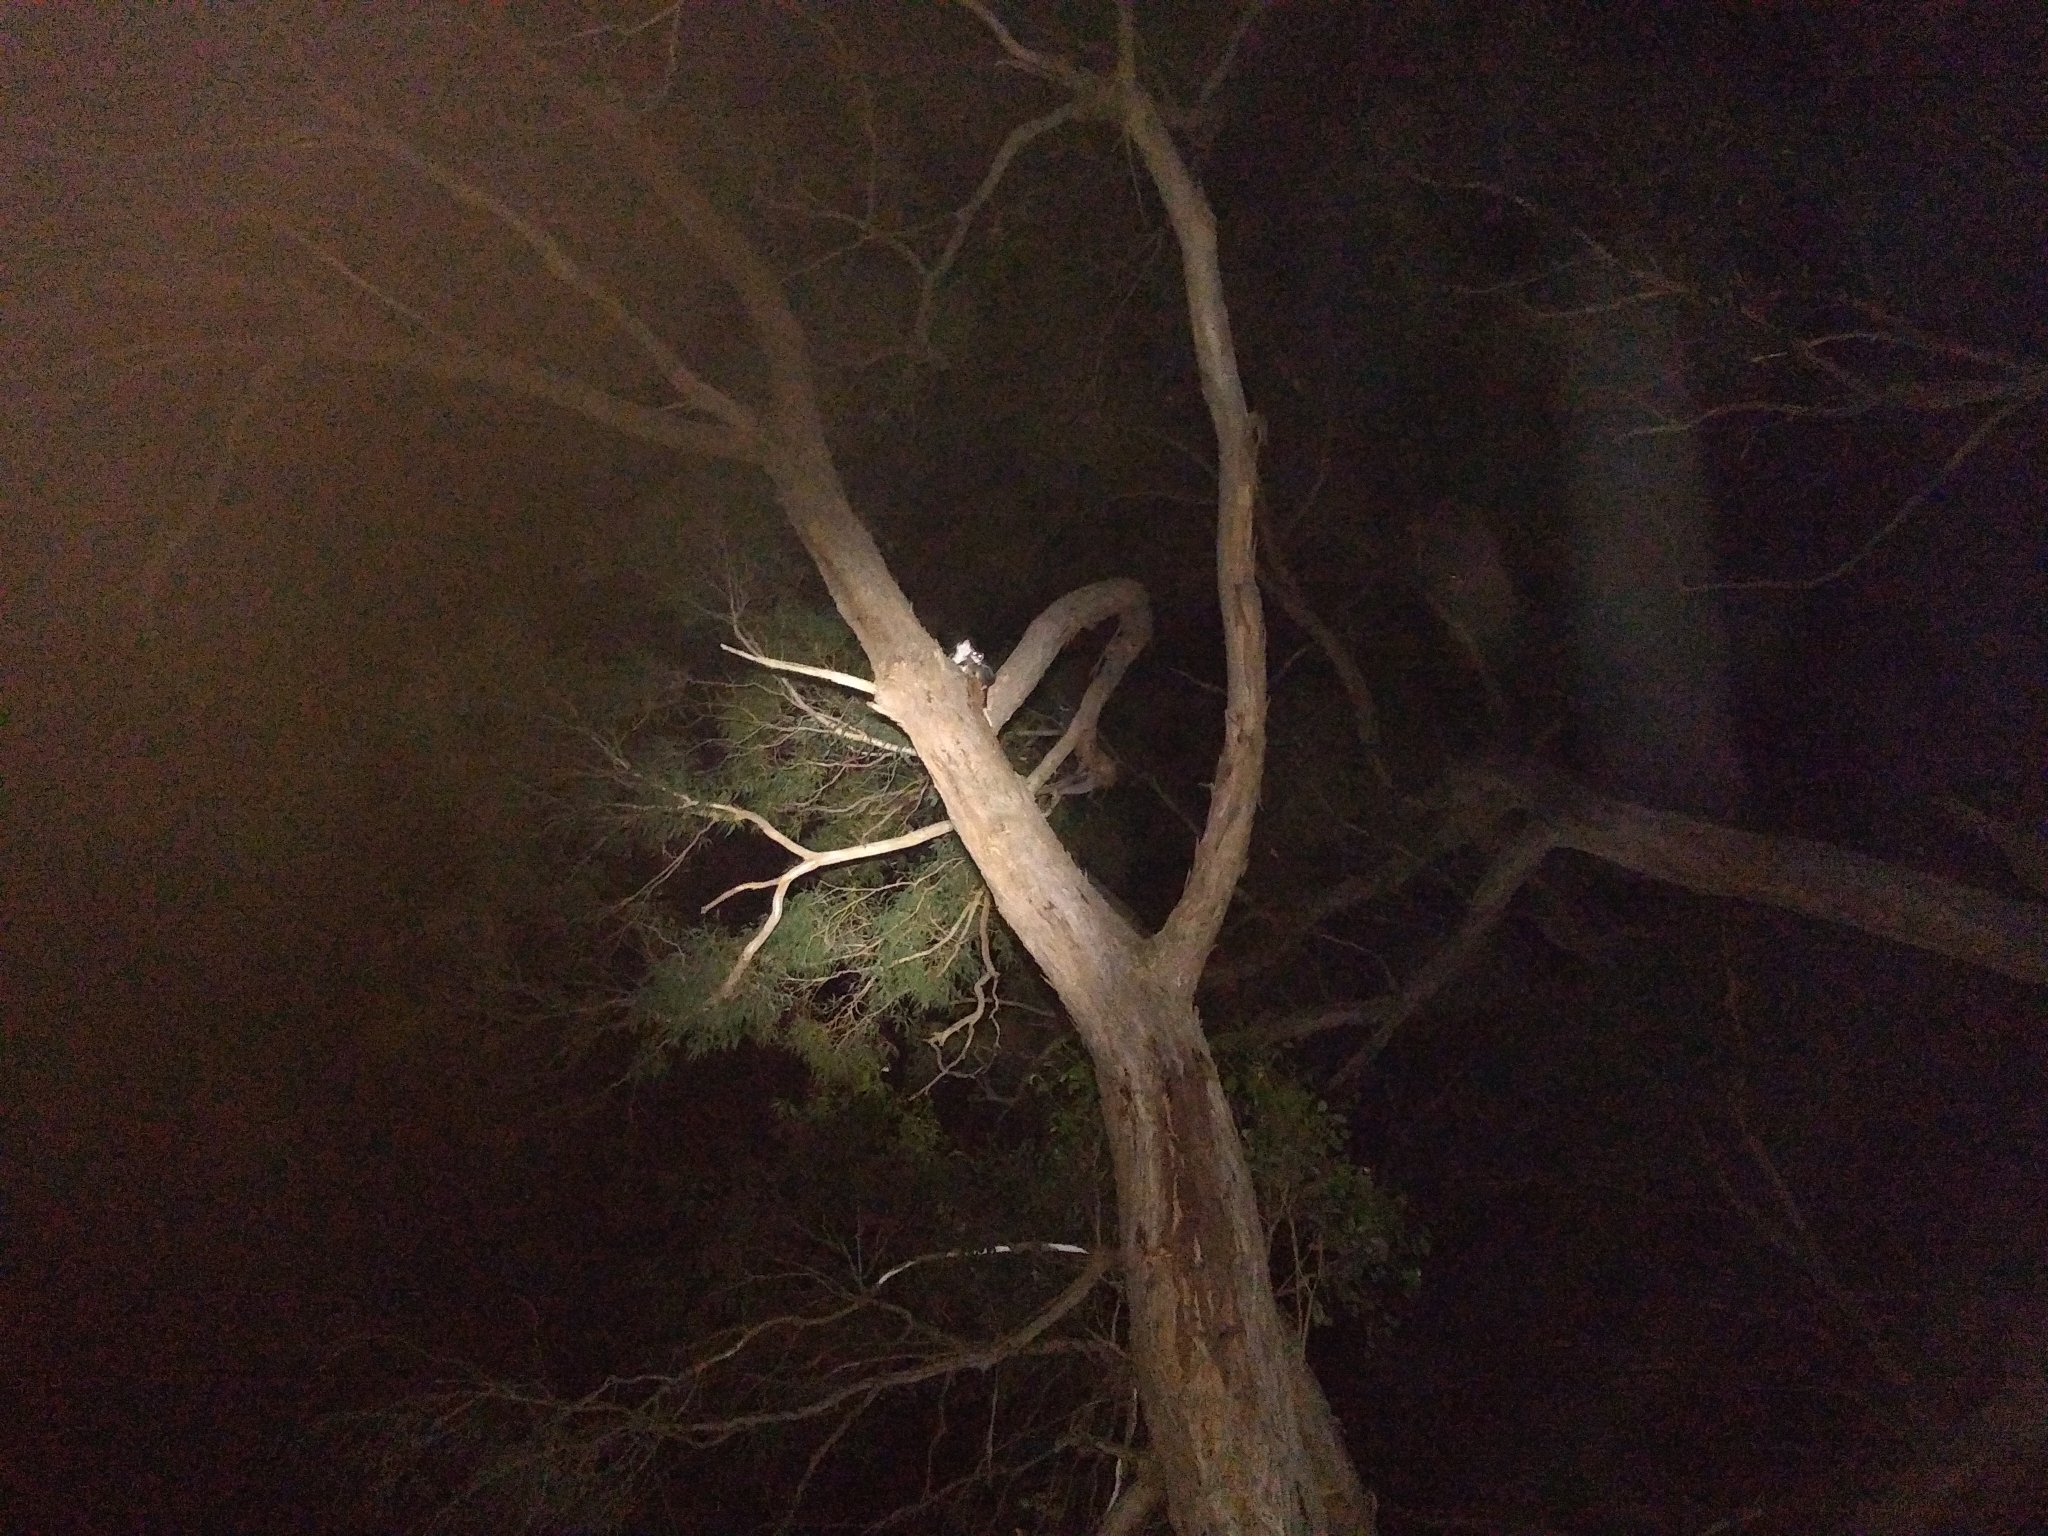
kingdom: Animalia
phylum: Chordata
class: Mammalia
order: Diprotodontia
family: Pseudocheiridae
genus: Pseudocheirus
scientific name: Pseudocheirus peregrinus
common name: Common ringtail possum
